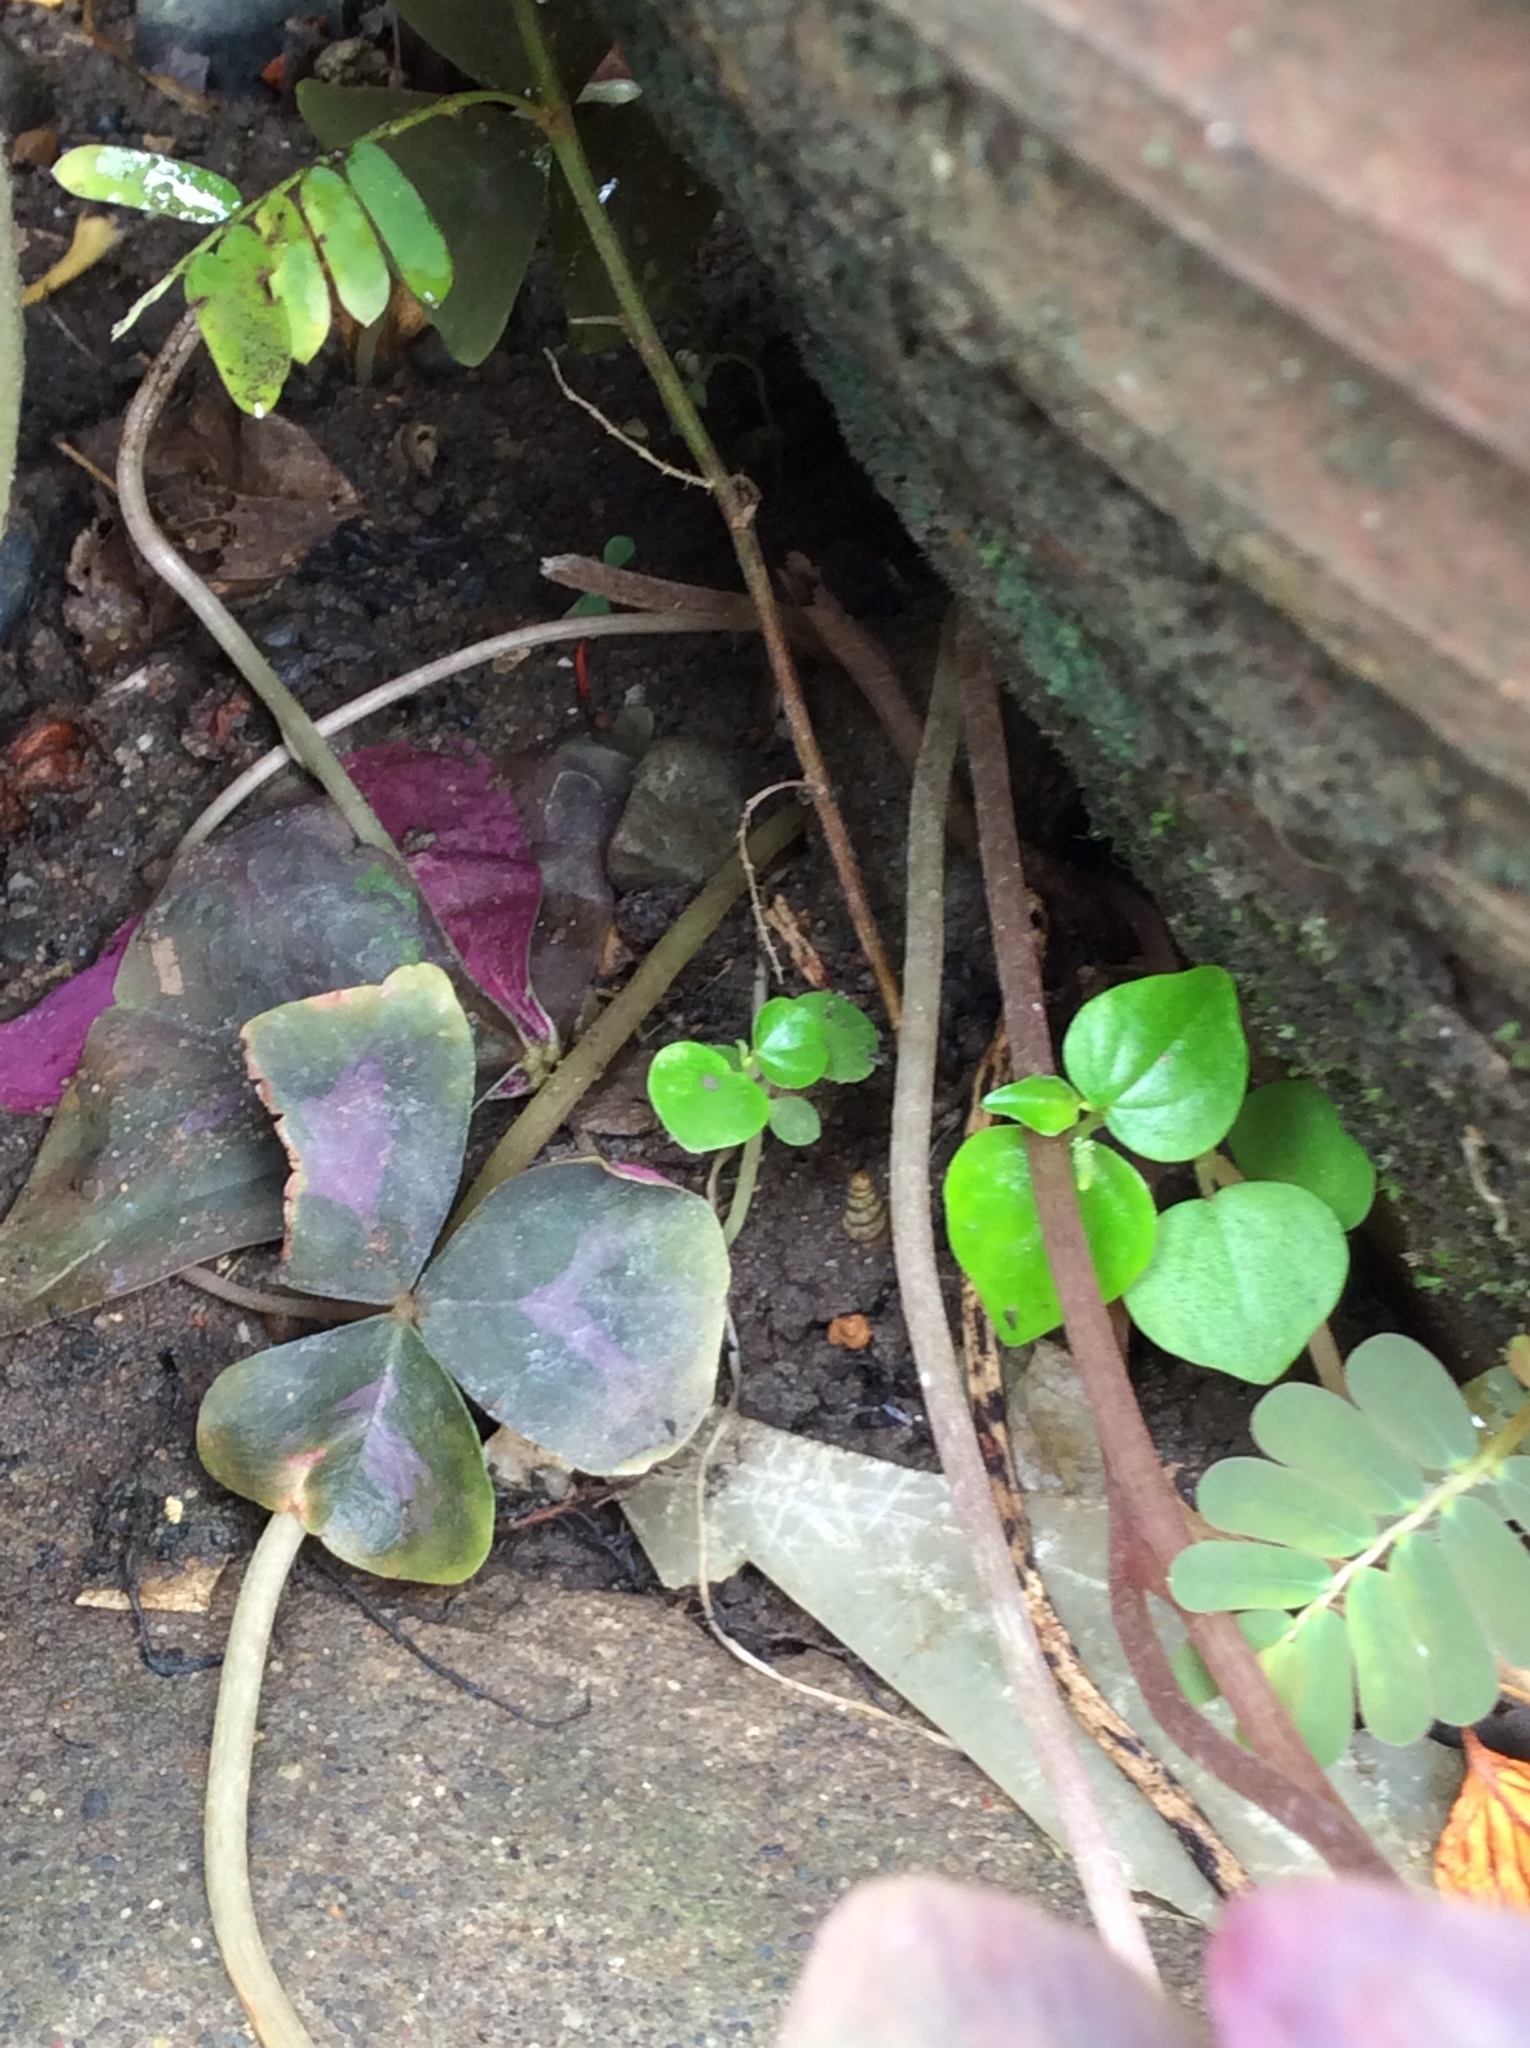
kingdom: Plantae
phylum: Tracheophyta
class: Magnoliopsida
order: Oxalidales
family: Oxalidaceae
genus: Oxalis
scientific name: Oxalis triangularis
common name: Wood sorrel
